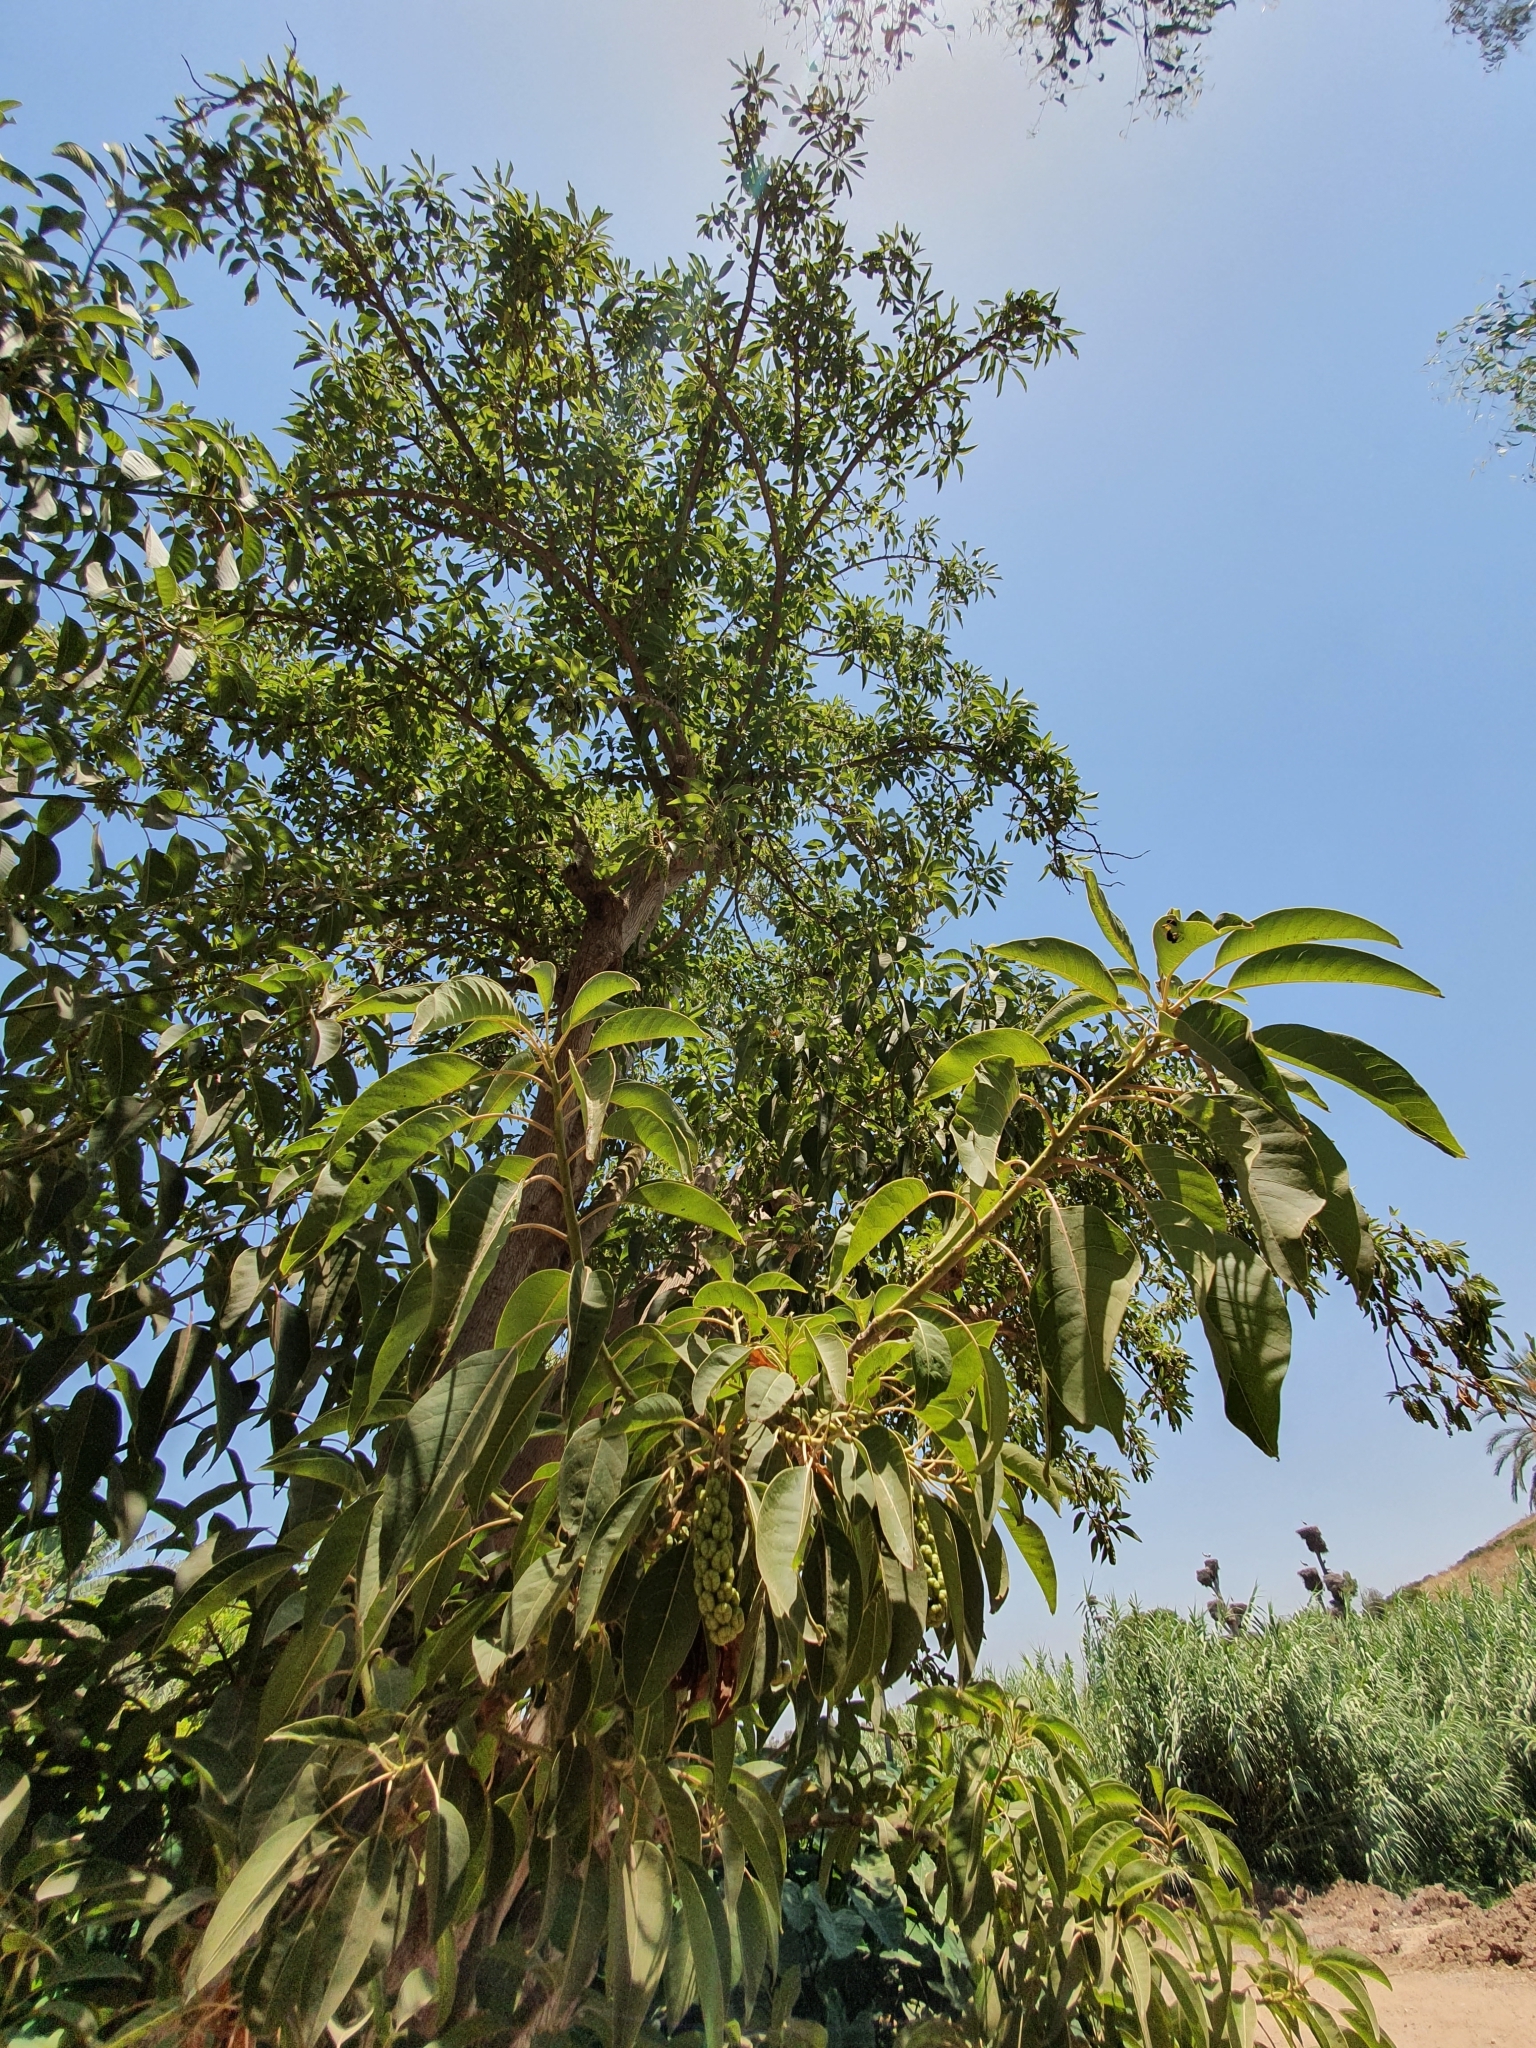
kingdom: Plantae
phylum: Tracheophyta
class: Magnoliopsida
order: Caryophyllales
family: Phytolaccaceae
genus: Phytolacca
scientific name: Phytolacca dioica
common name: Pokeweed
